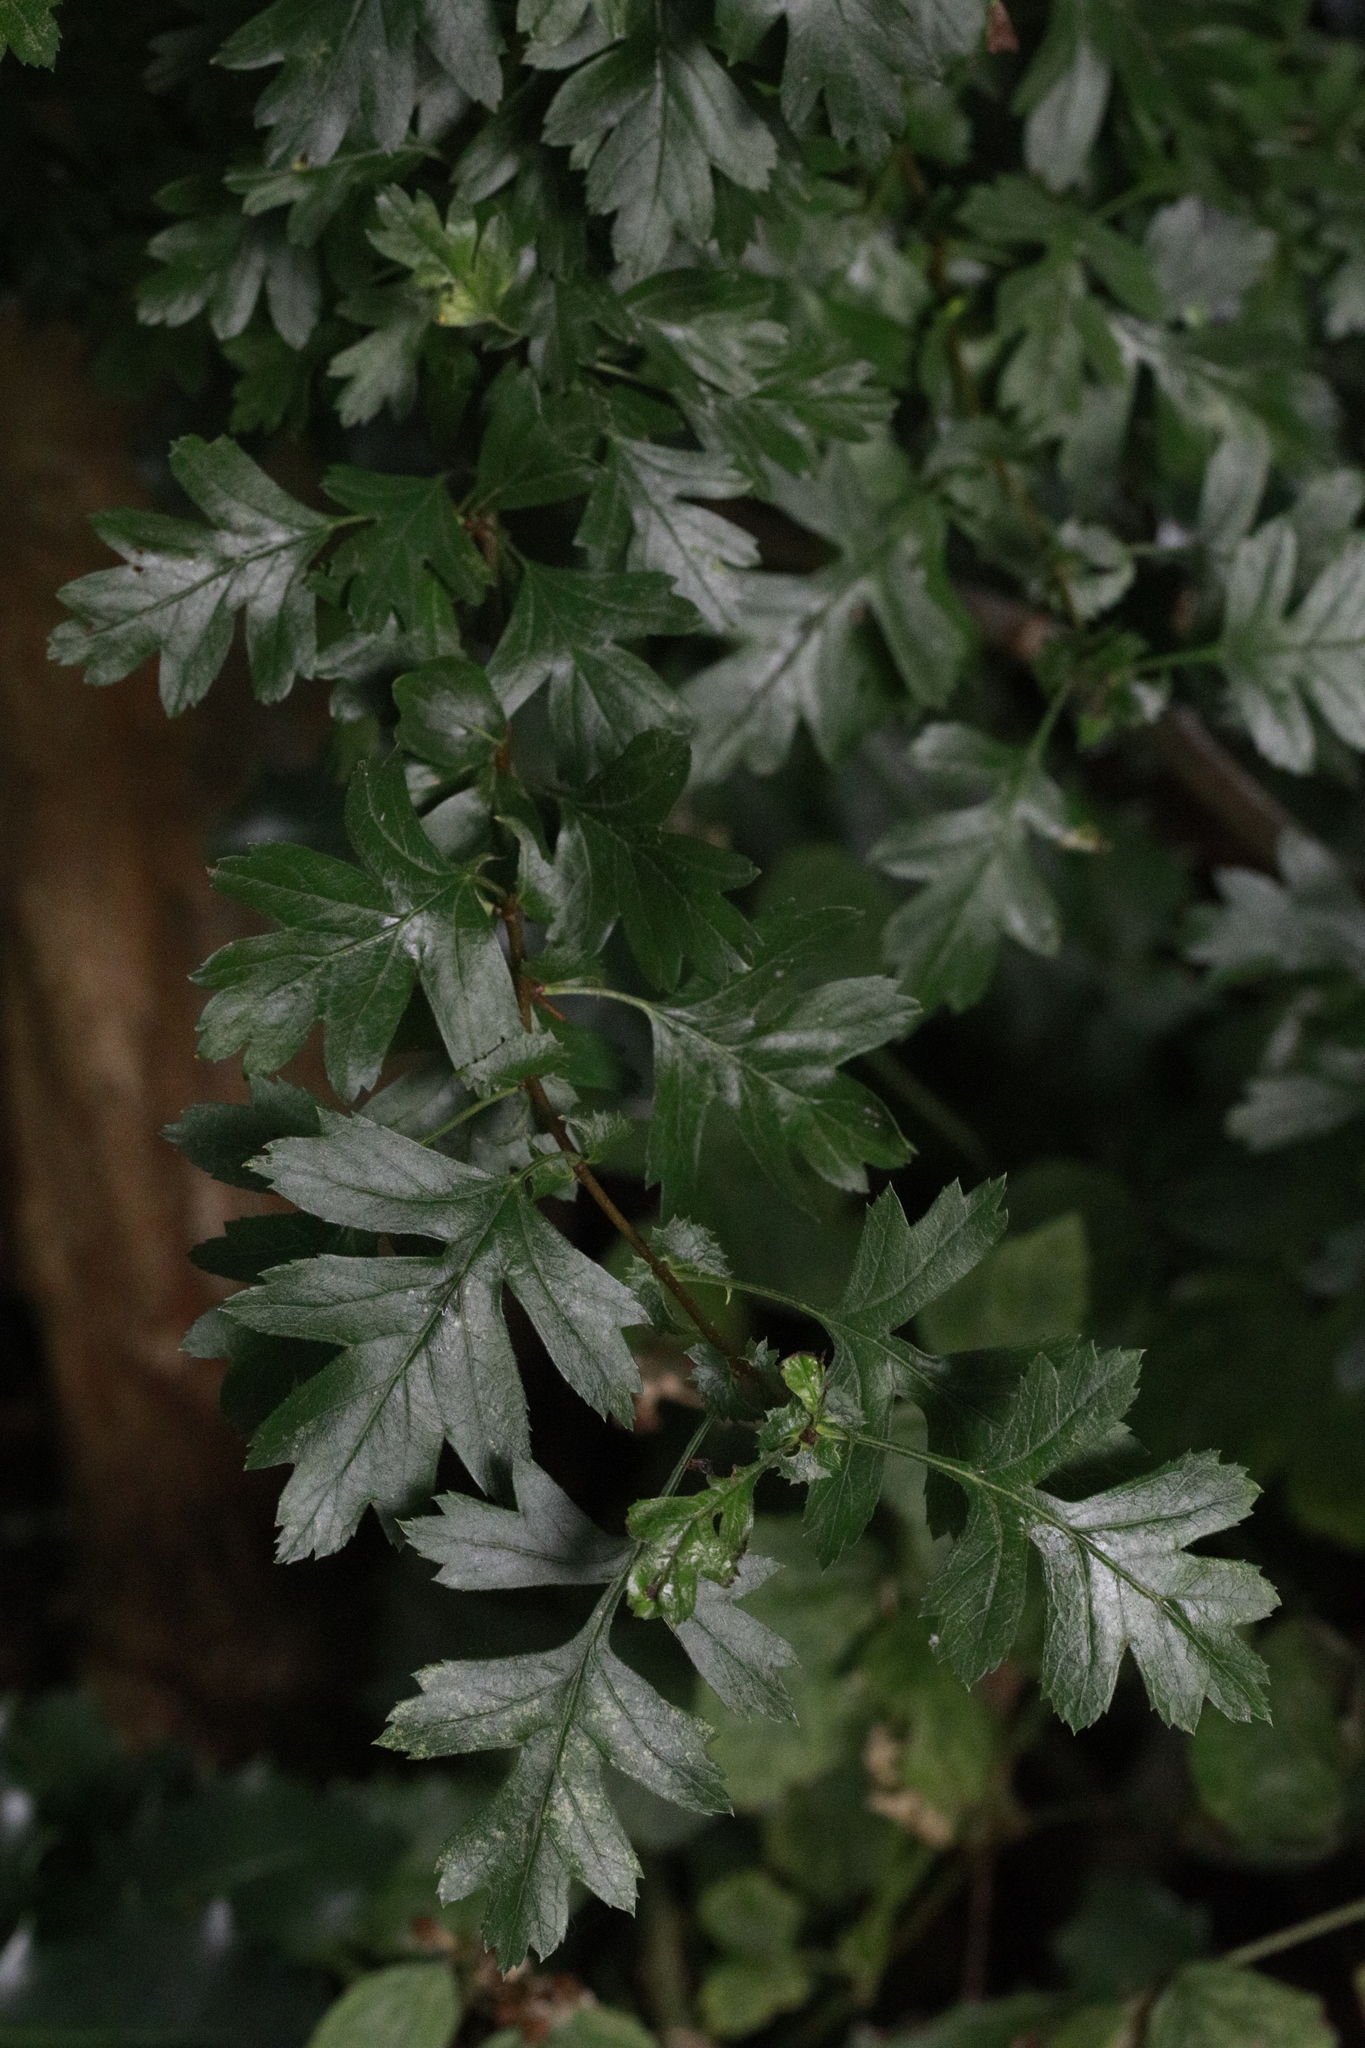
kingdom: Plantae
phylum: Tracheophyta
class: Magnoliopsida
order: Rosales
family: Rosaceae
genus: Crataegus
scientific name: Crataegus monogyna
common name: Hawthorn
